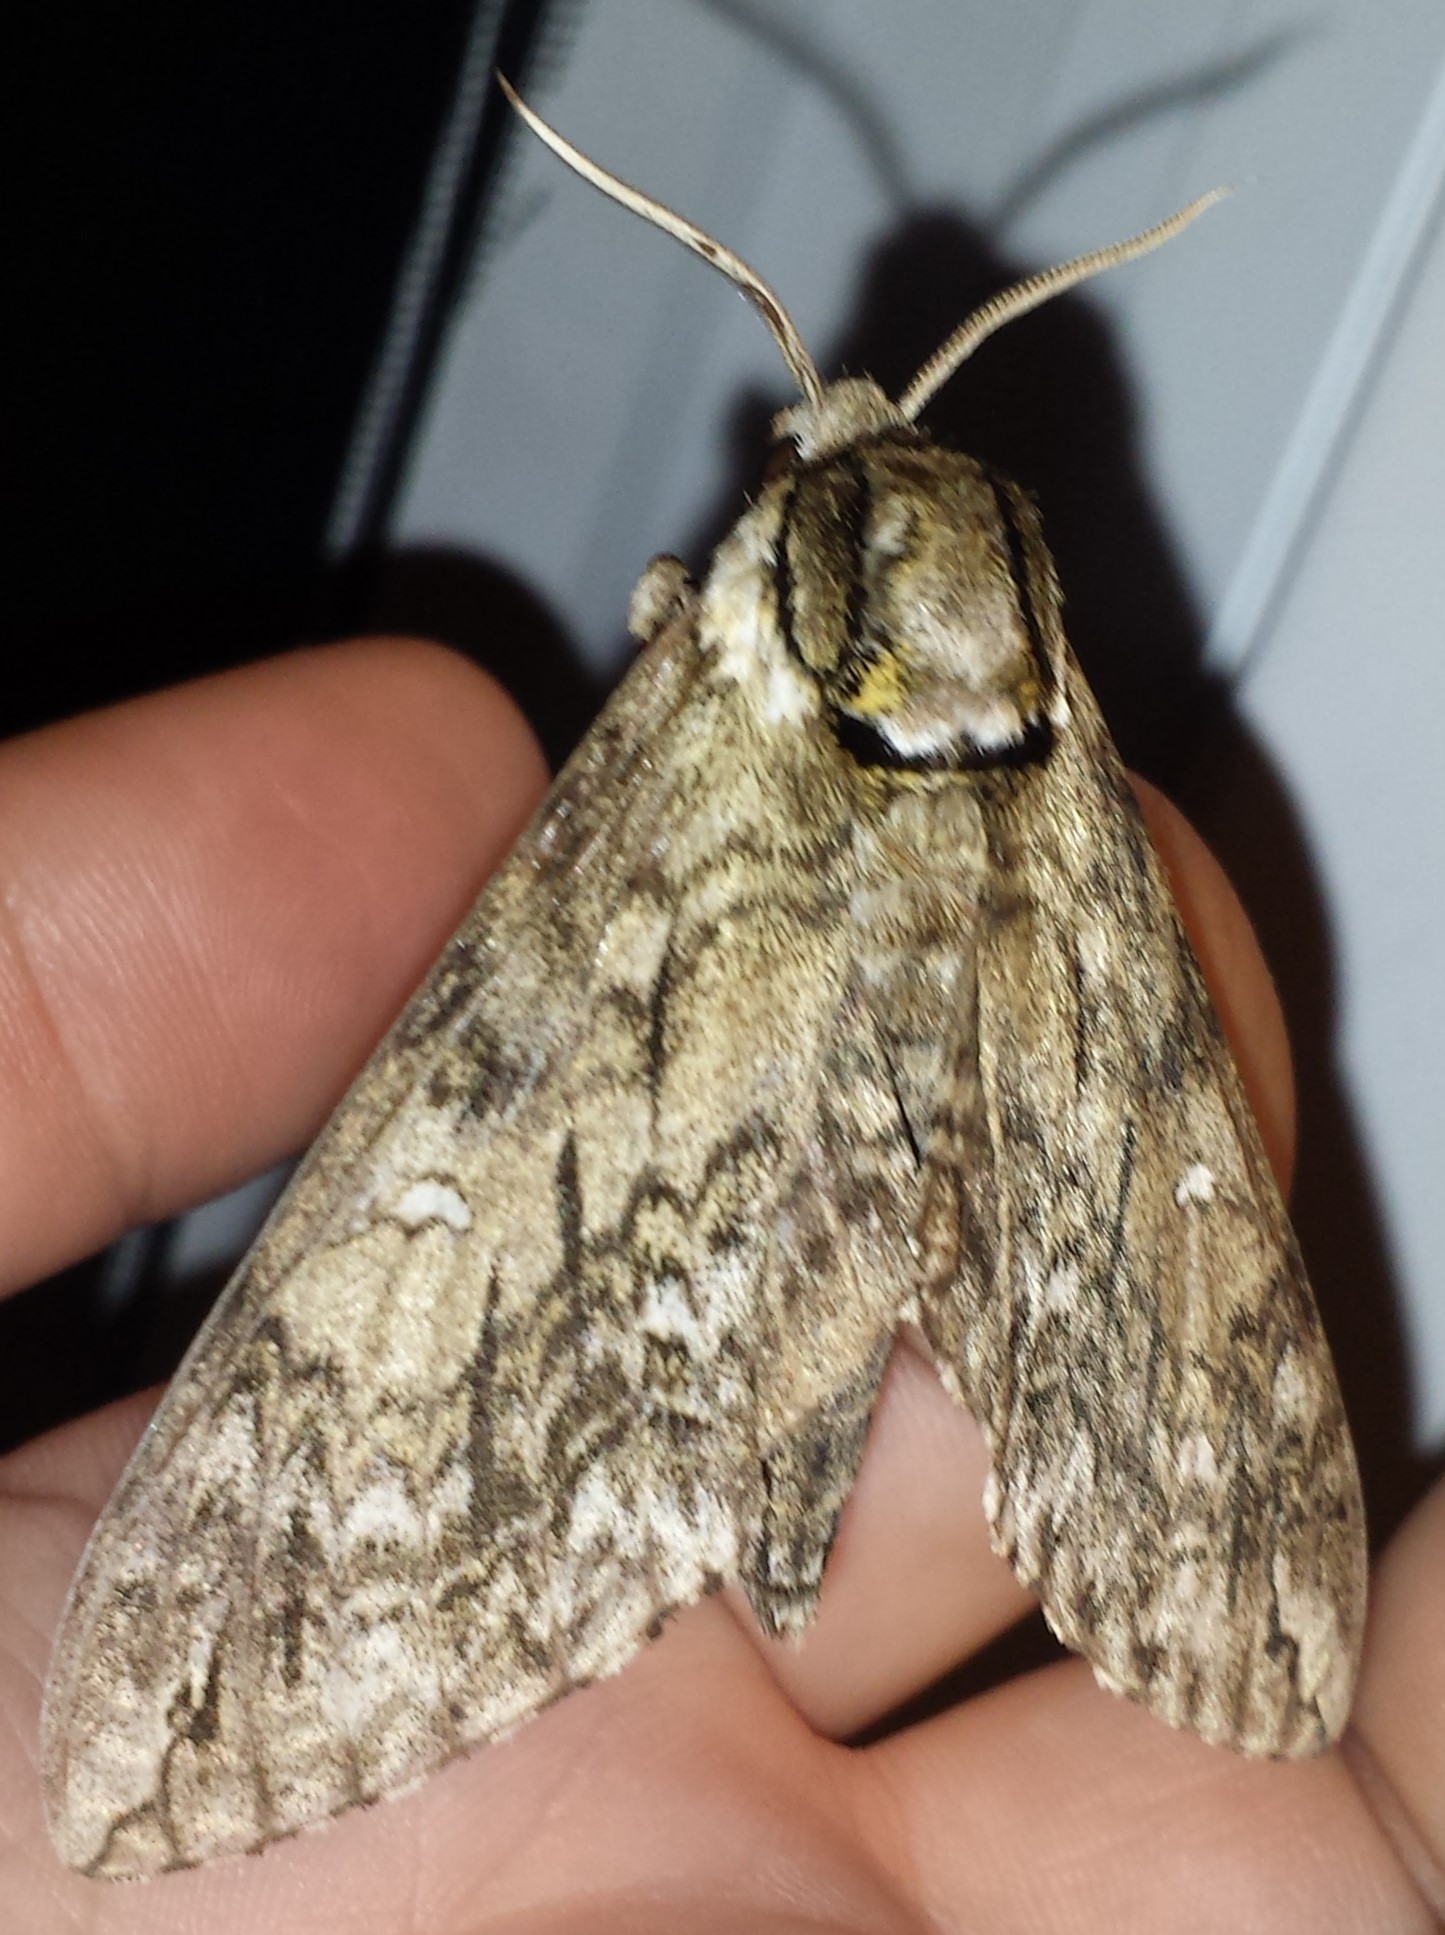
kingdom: Animalia
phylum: Arthropoda
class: Insecta
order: Lepidoptera
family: Sphingidae
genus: Ceratomia
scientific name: Ceratomia undulosa
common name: Waved sphinx
